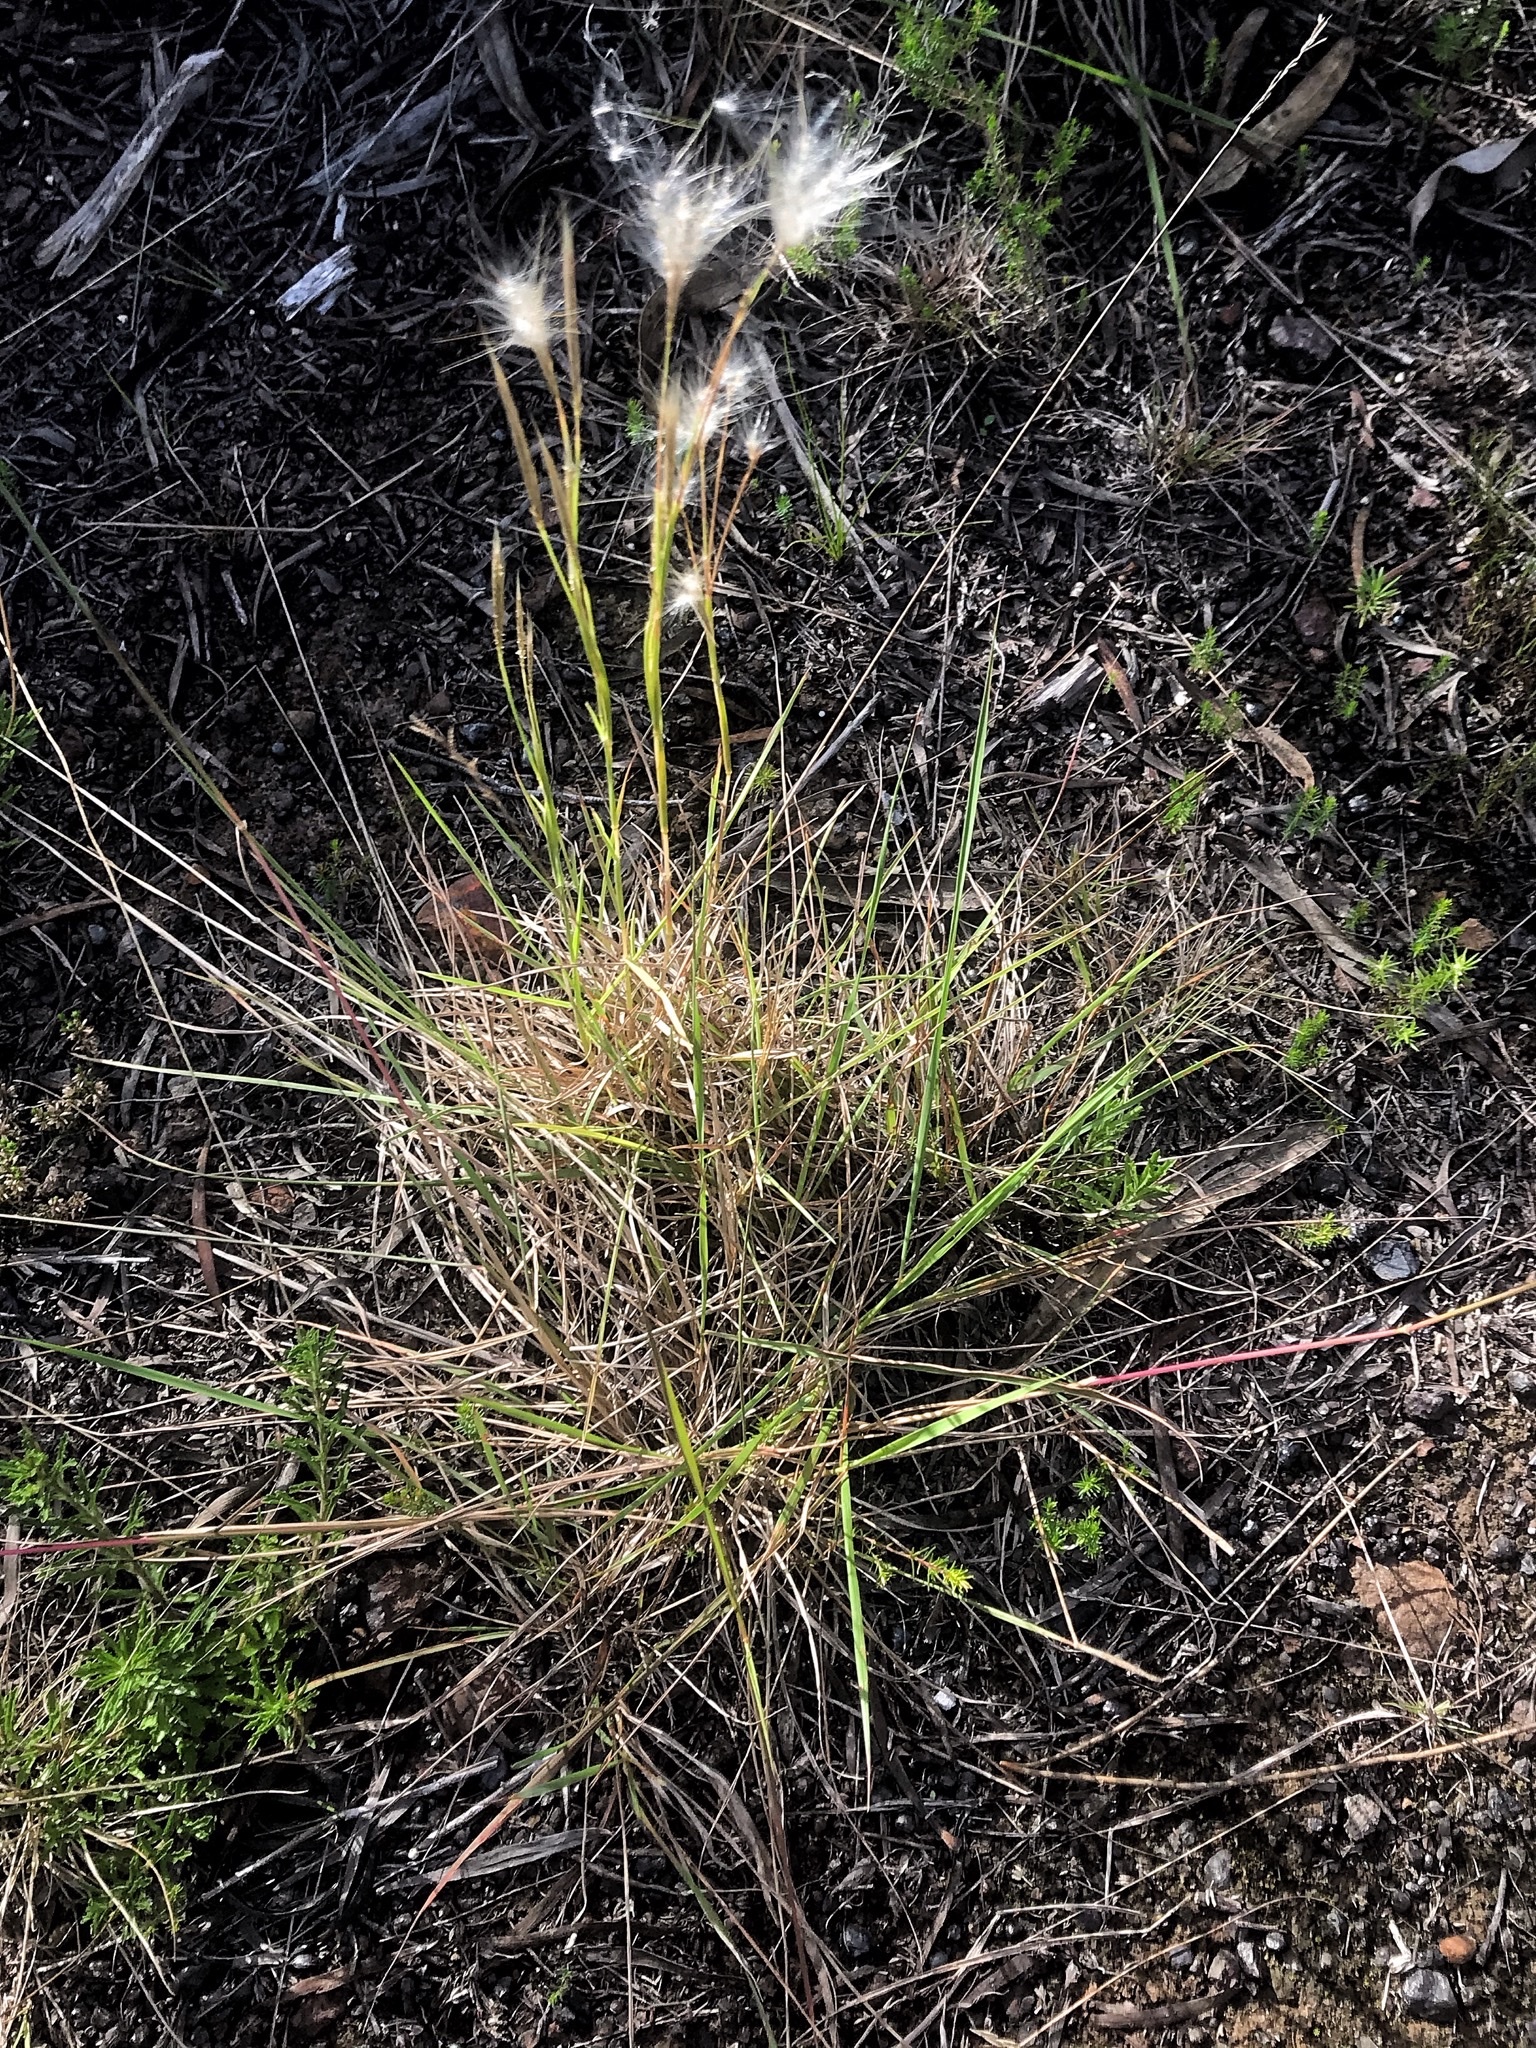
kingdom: Plantae
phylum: Tracheophyta
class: Liliopsida
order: Poales
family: Poaceae
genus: Andropogon
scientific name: Andropogon eucomus
